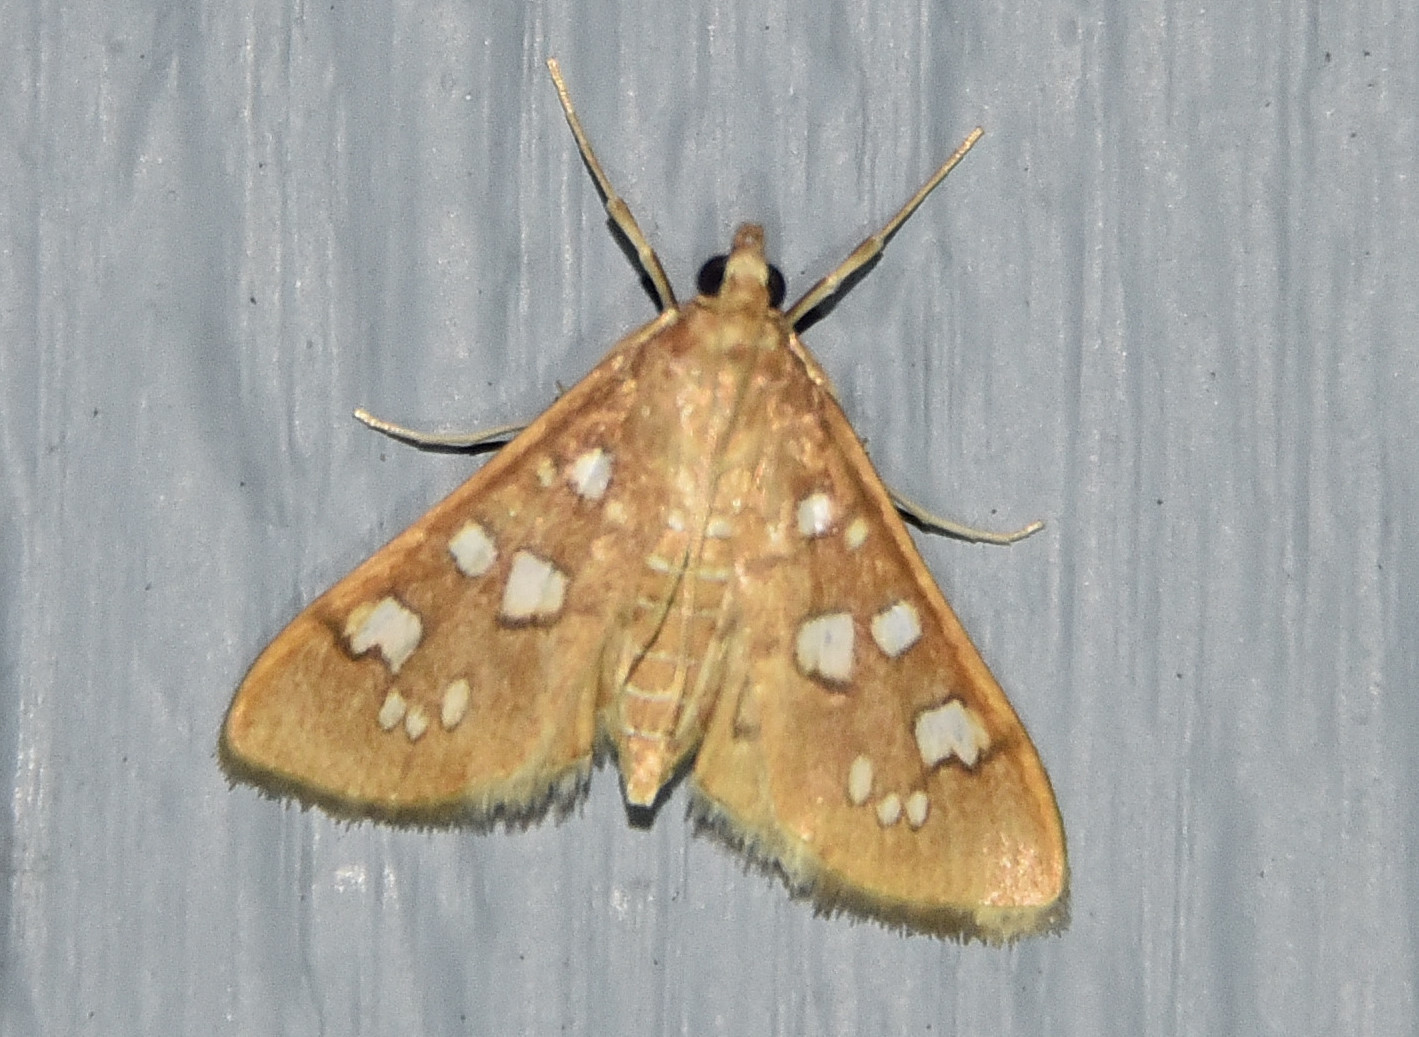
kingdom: Animalia
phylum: Arthropoda
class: Insecta
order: Lepidoptera
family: Crambidae
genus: Samea
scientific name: Samea baccatalis
